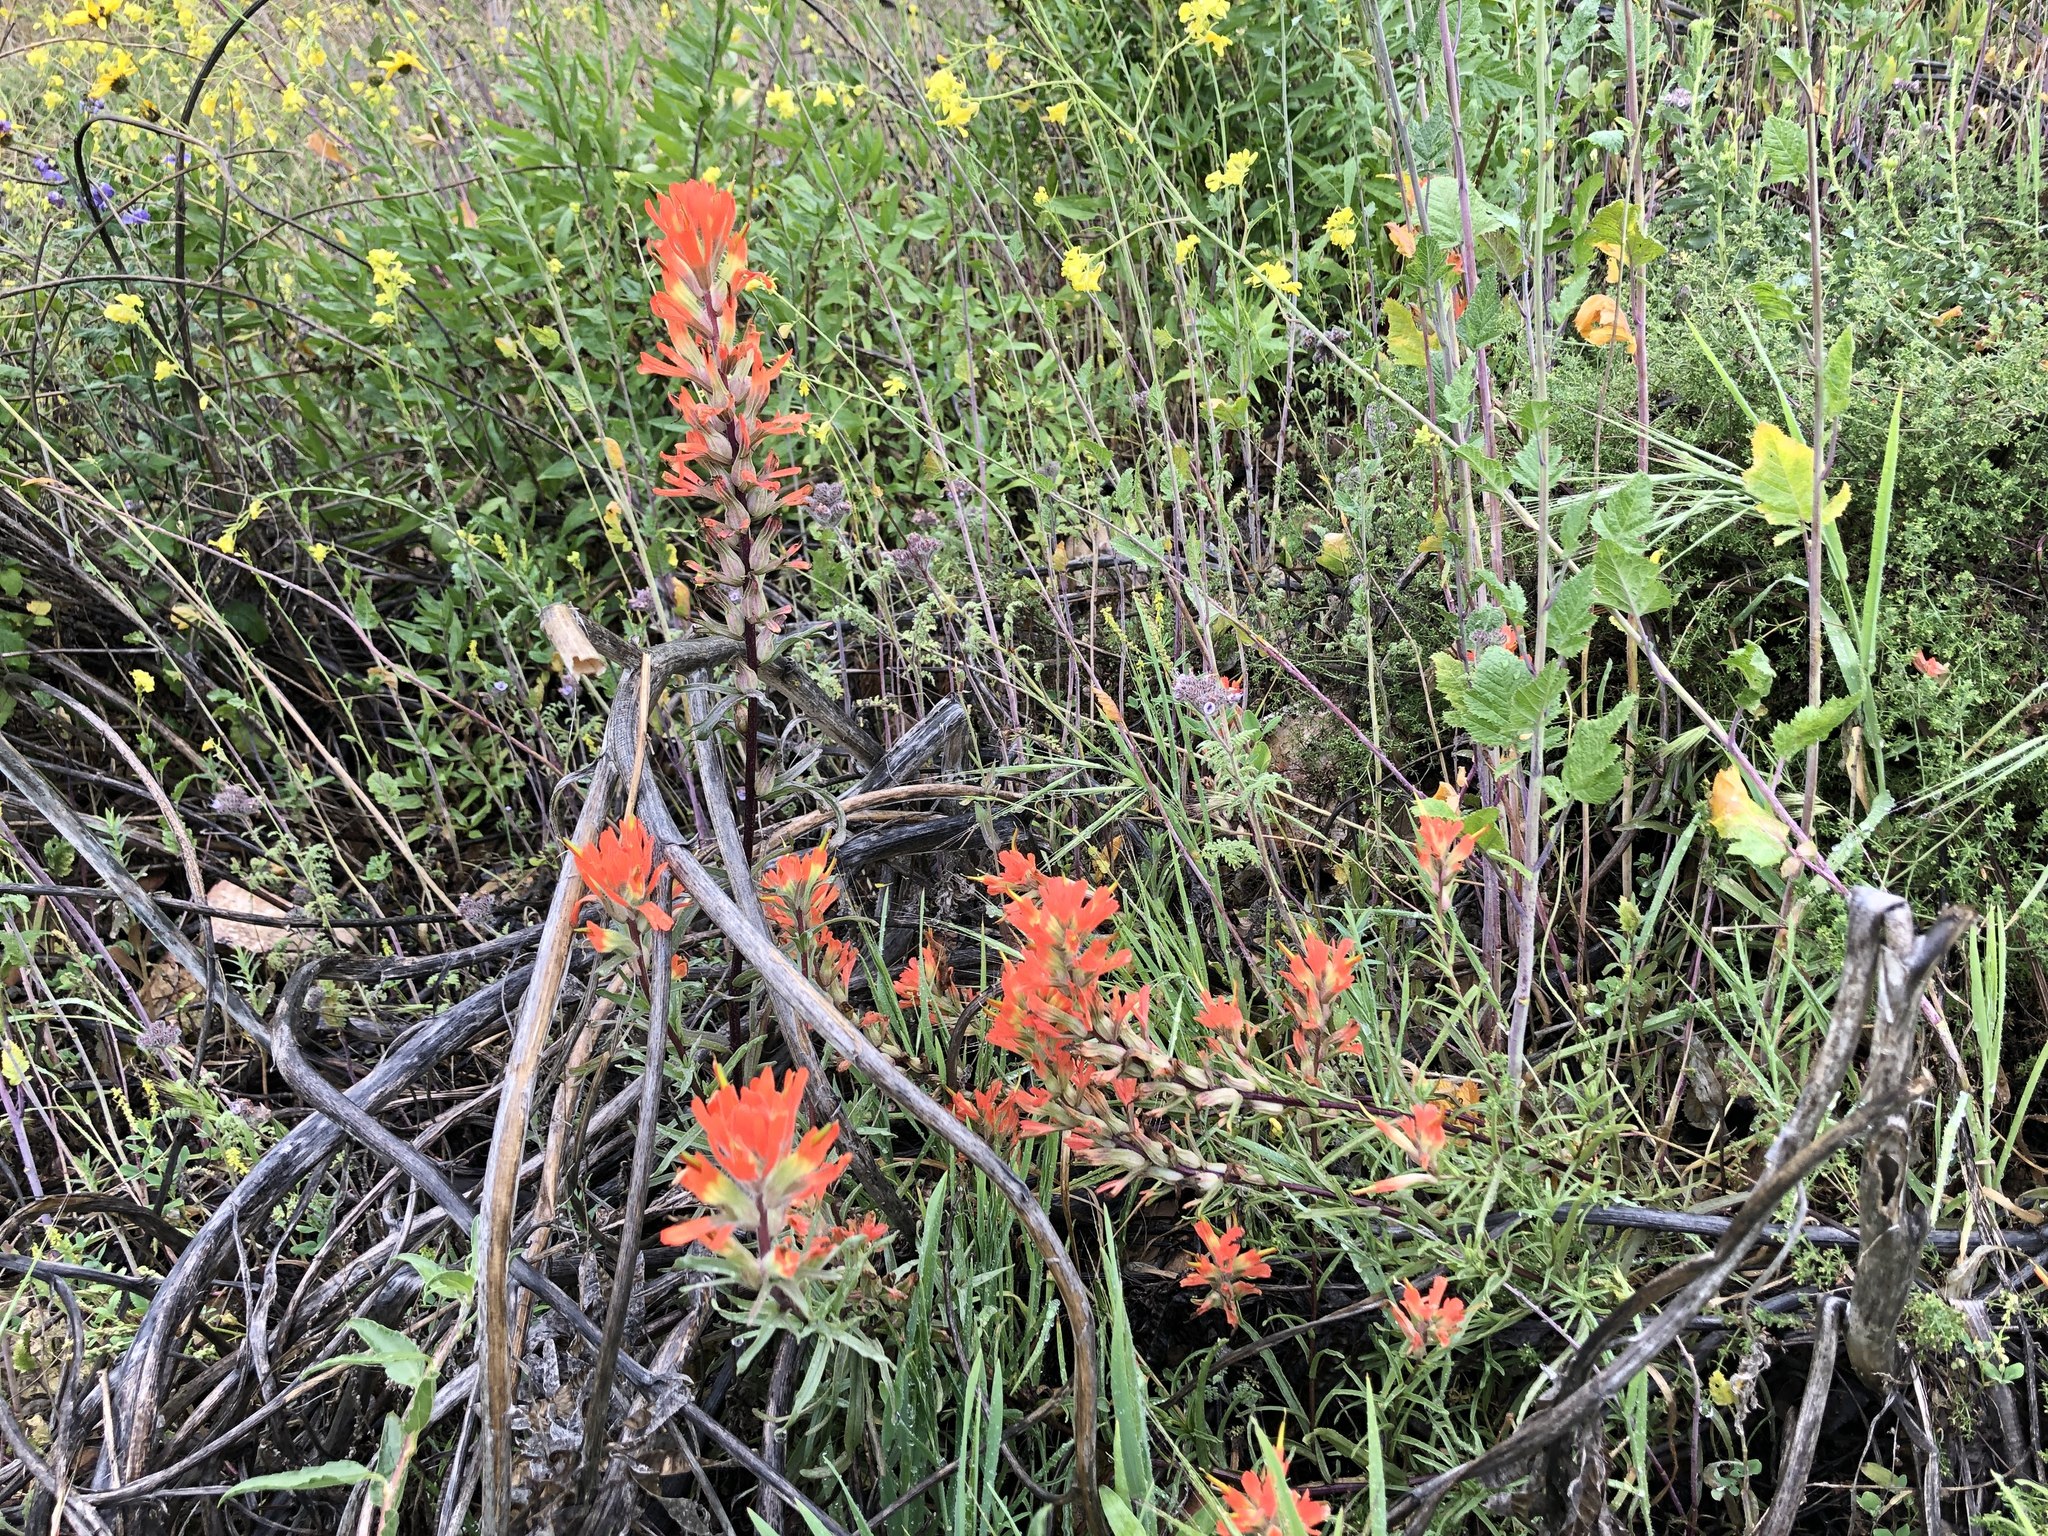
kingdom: Plantae
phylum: Tracheophyta
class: Magnoliopsida
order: Lamiales
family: Orobanchaceae
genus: Castilleja
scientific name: Castilleja affinis
